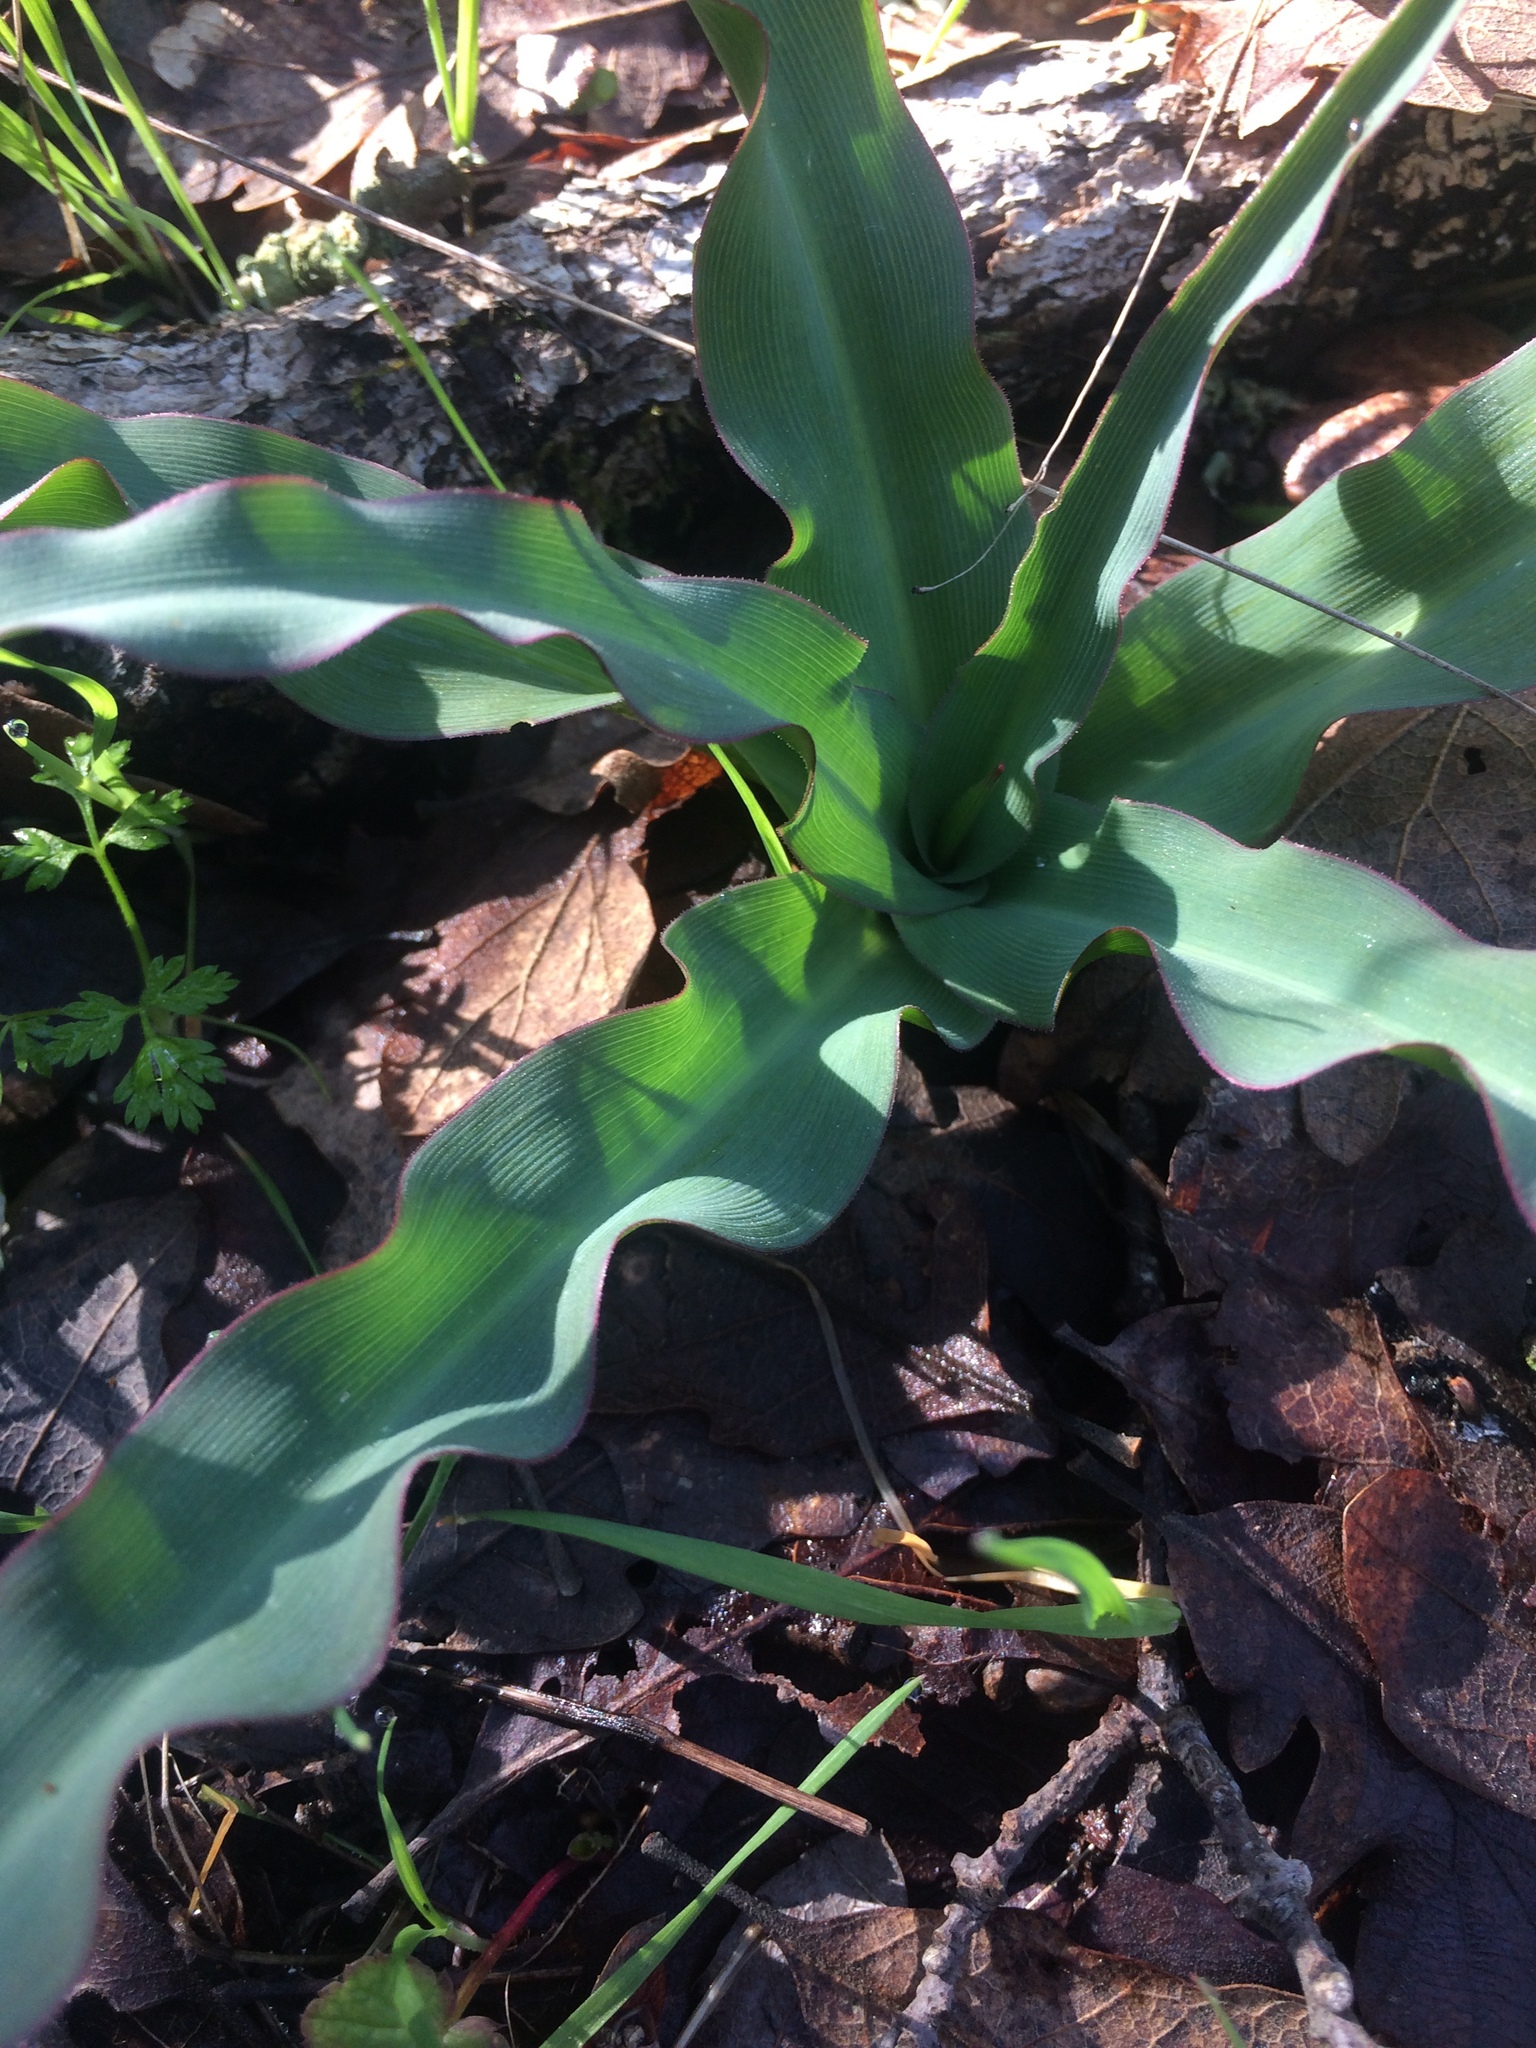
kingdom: Plantae
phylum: Tracheophyta
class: Liliopsida
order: Asparagales
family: Asparagaceae
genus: Chlorogalum
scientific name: Chlorogalum pomeridianum
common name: Amole
